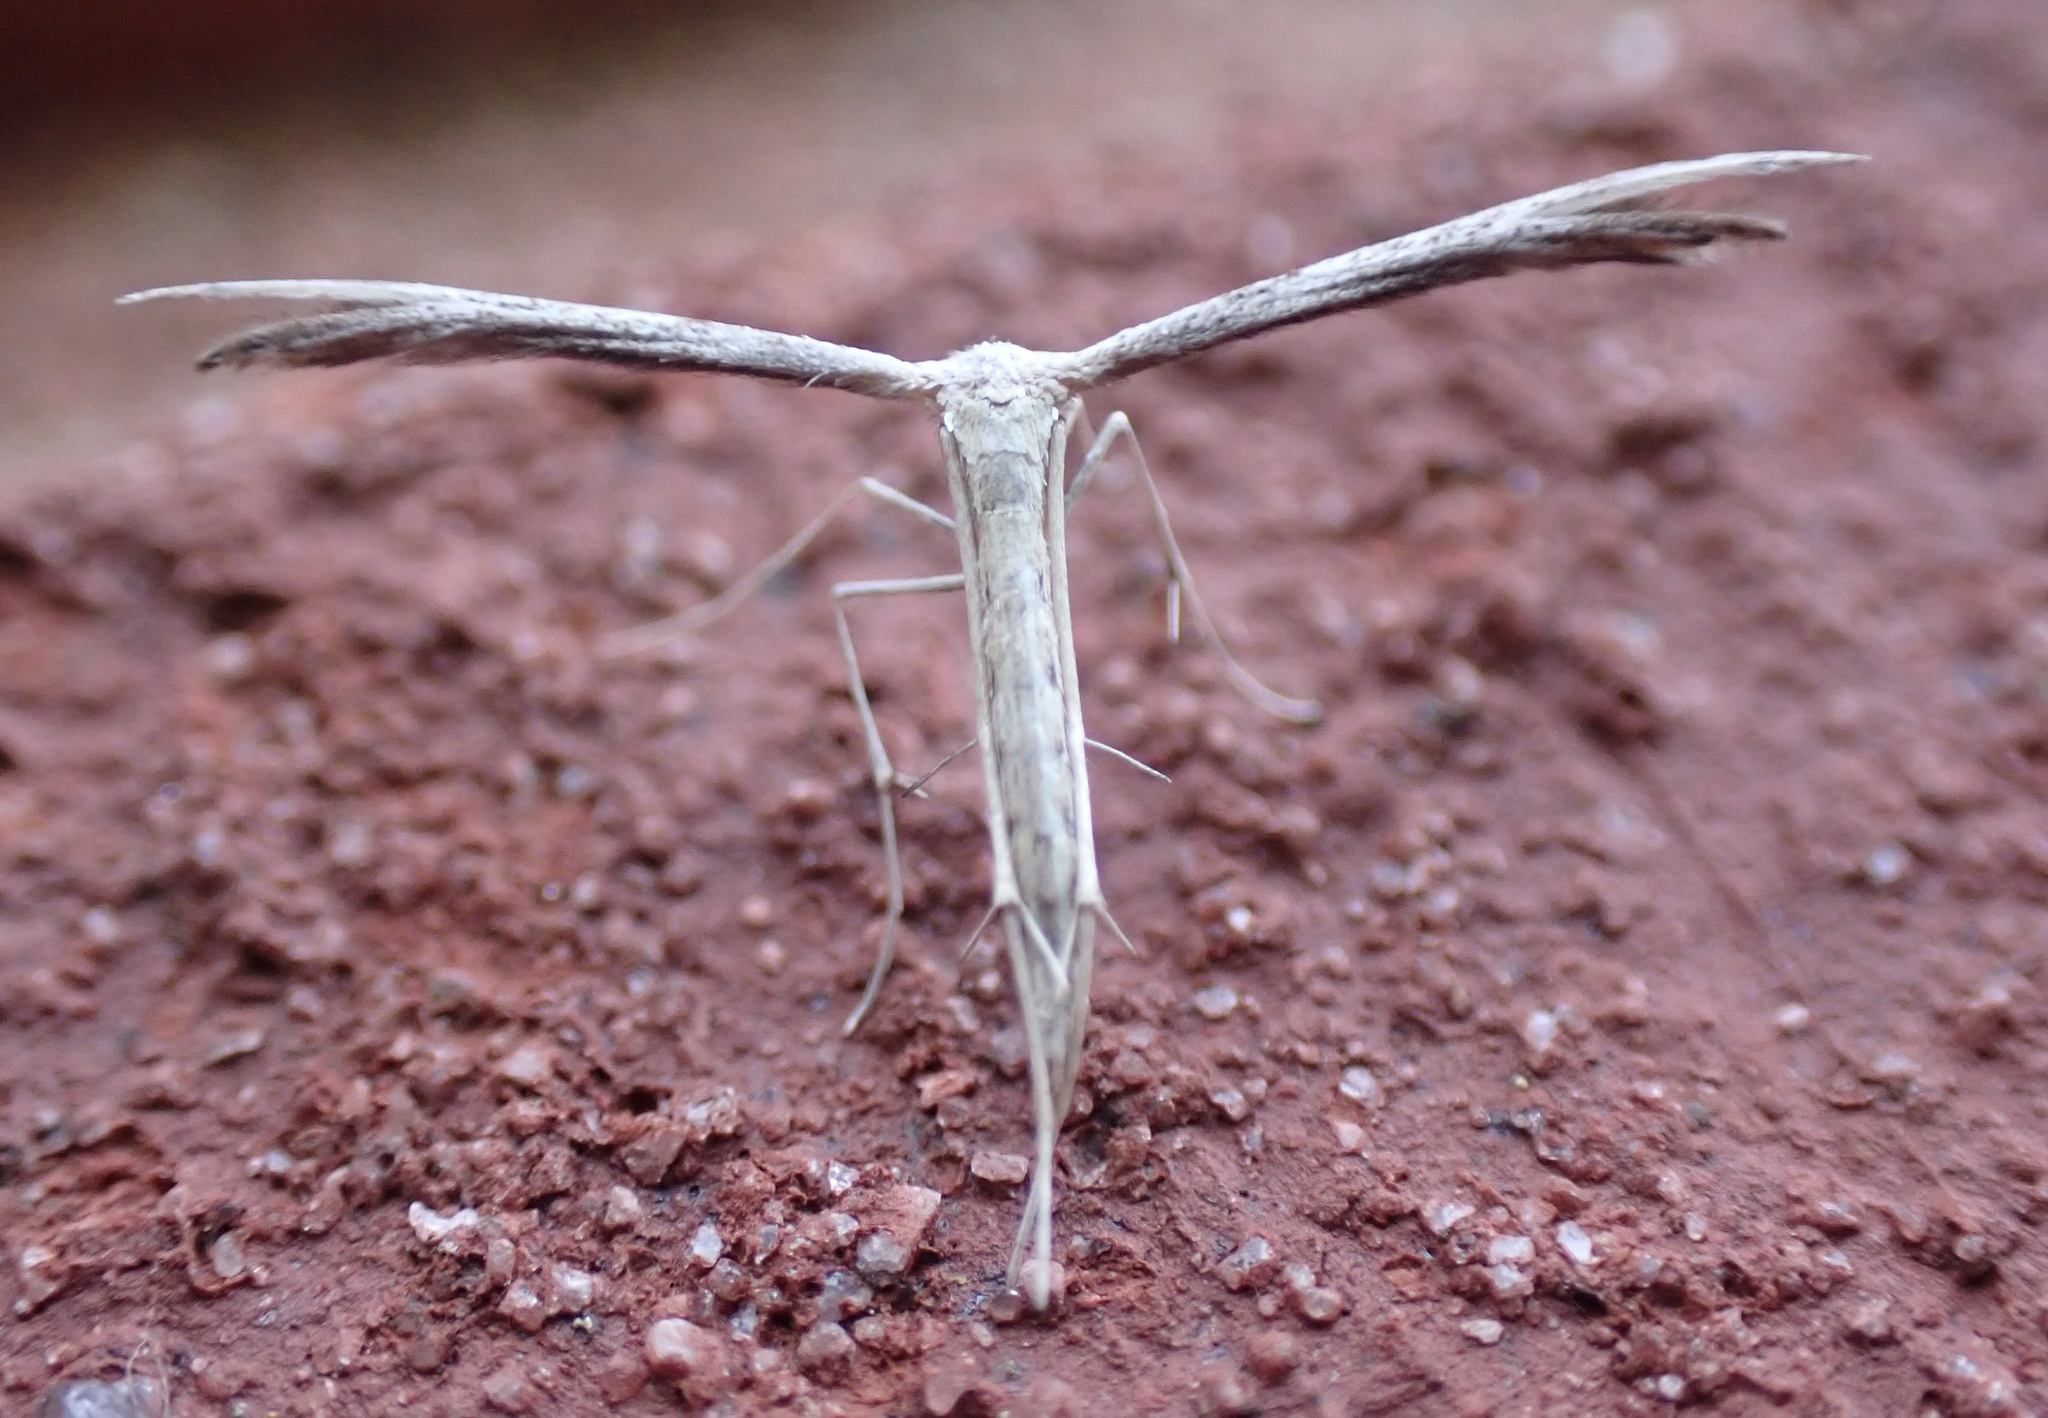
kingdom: Animalia
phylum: Arthropoda
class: Insecta
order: Lepidoptera
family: Pterophoridae
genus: Pselnophorus
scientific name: Pselnophorus belfragei
